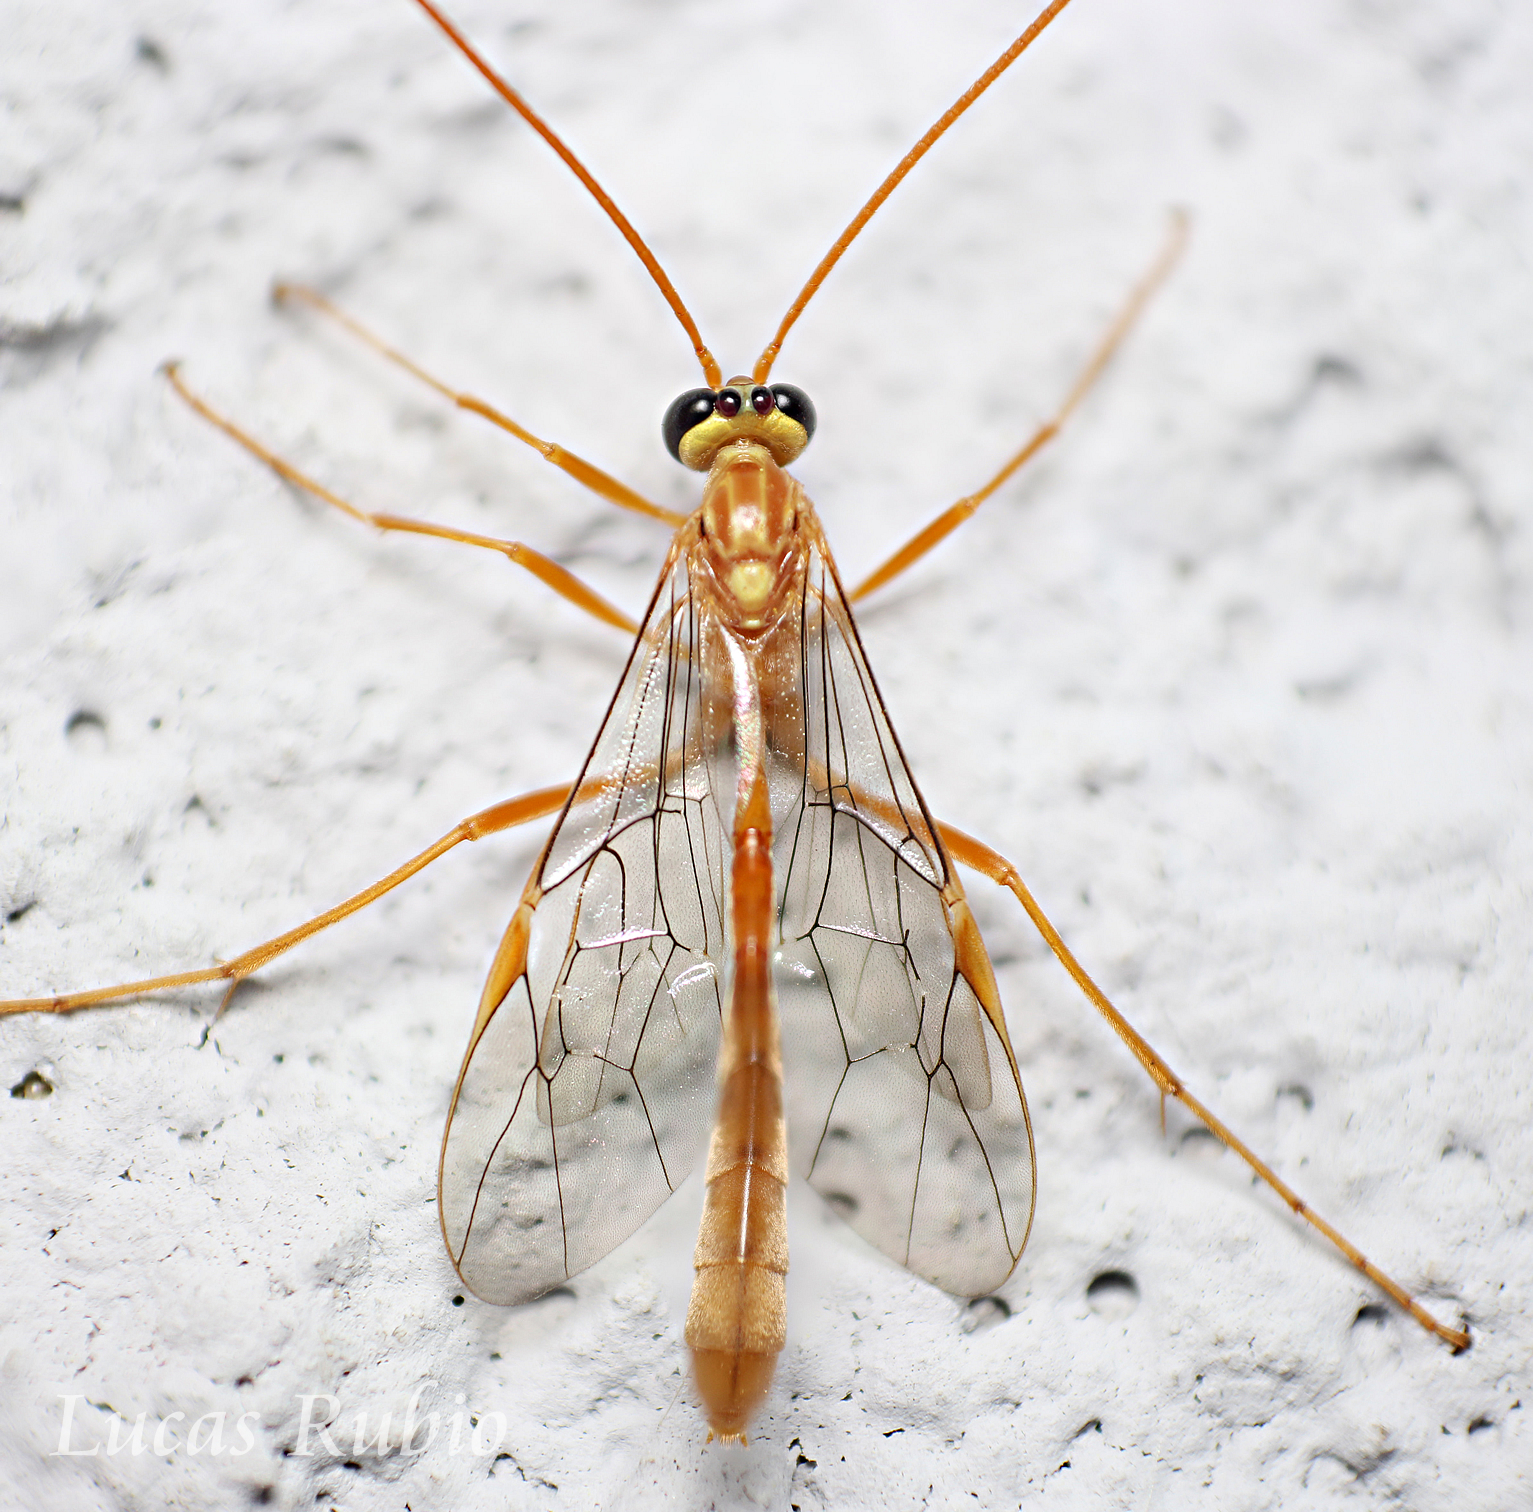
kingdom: Animalia
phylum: Arthropoda
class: Insecta
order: Hymenoptera
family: Ichneumonidae
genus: Ophion
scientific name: Ophion
